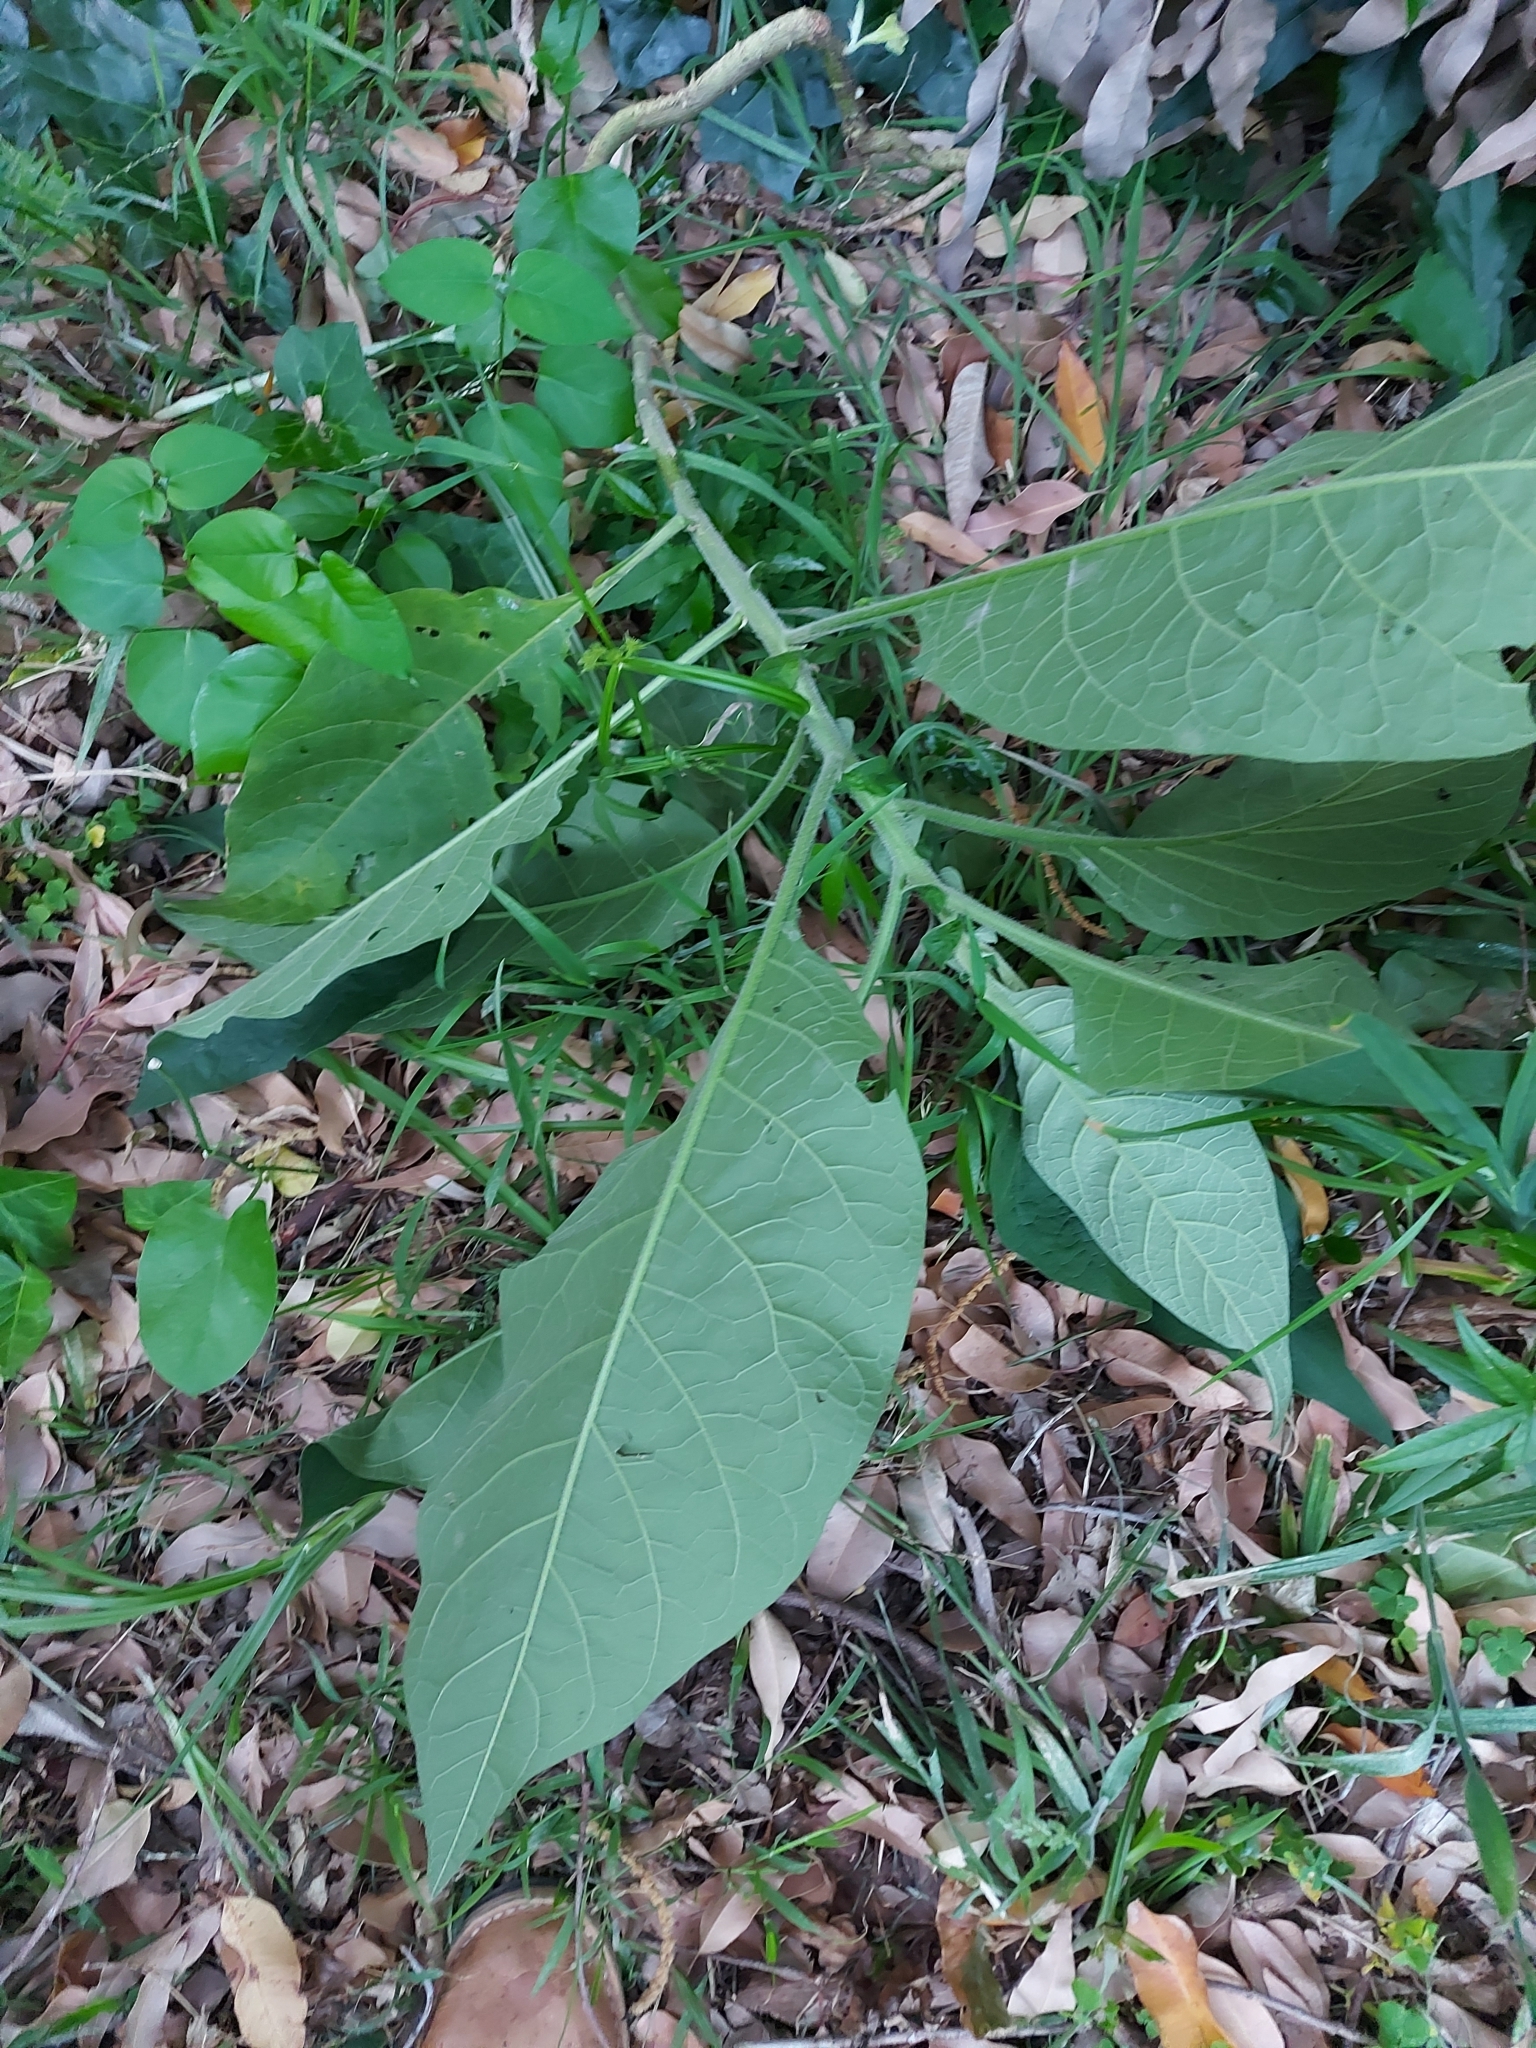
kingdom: Plantae
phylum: Tracheophyta
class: Magnoliopsida
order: Solanales
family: Solanaceae
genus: Solanum
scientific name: Solanum mauritianum
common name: Earleaf nightshade
